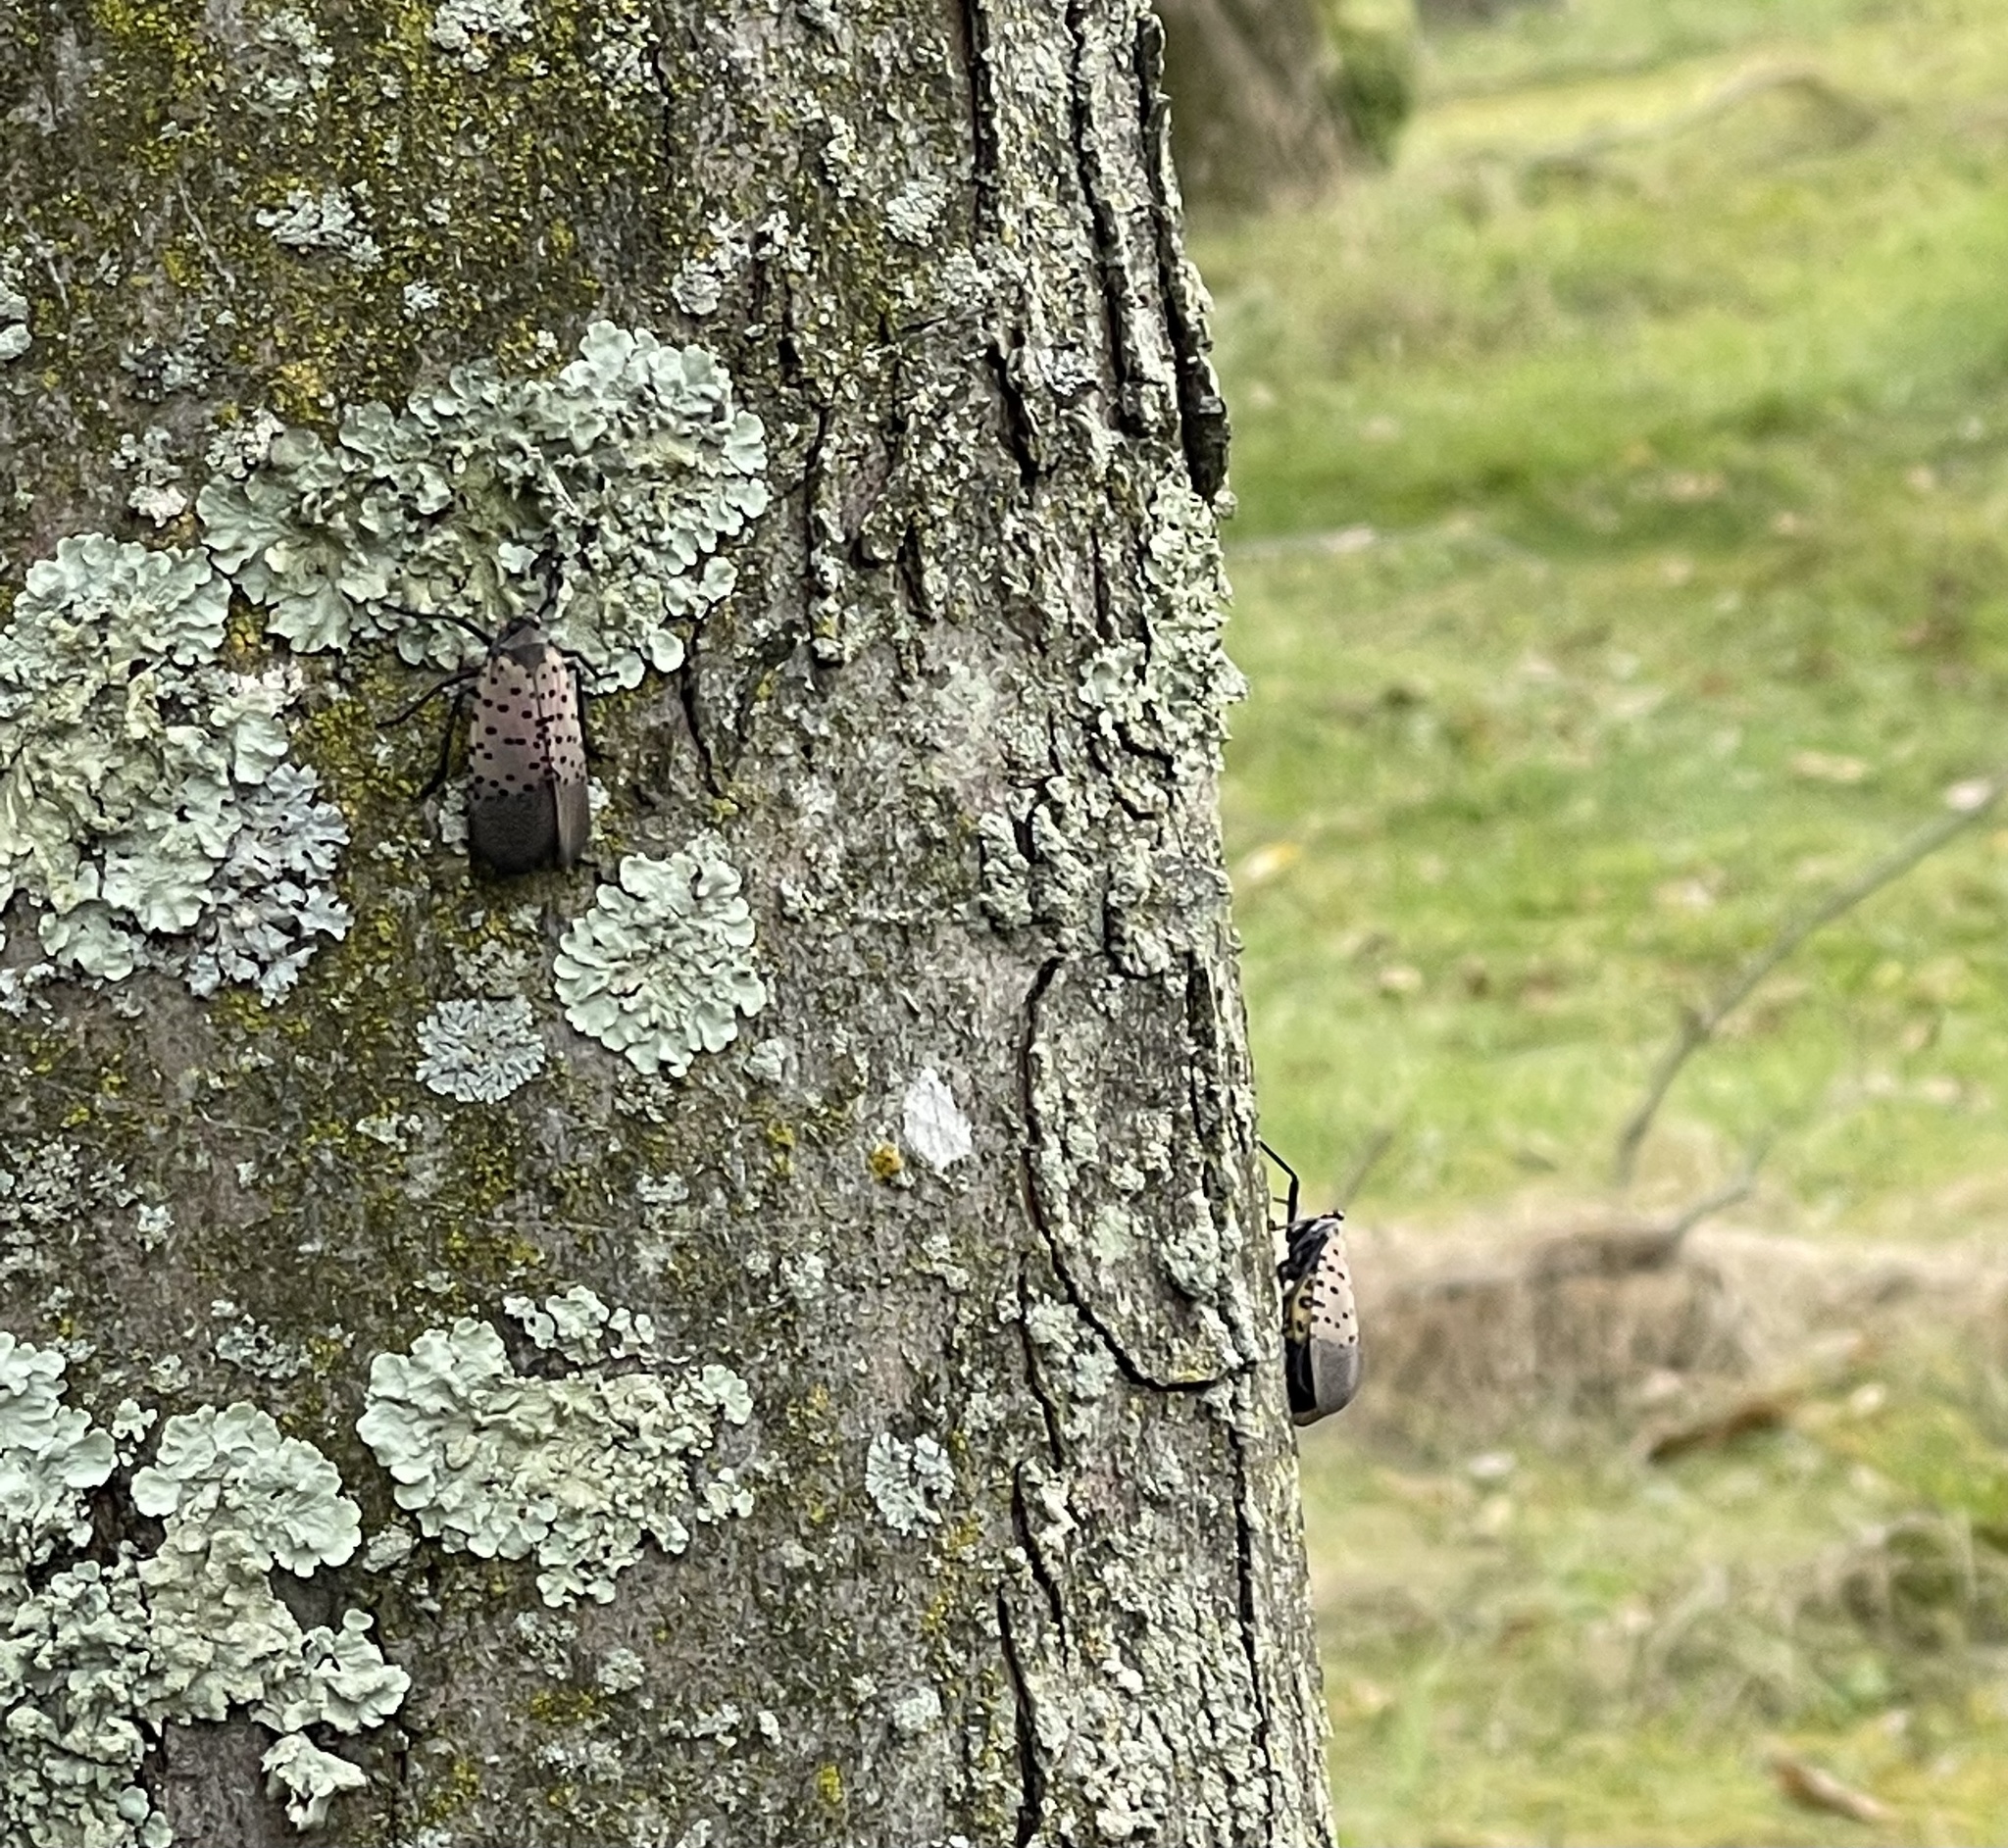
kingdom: Animalia
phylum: Arthropoda
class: Insecta
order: Hemiptera
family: Fulgoridae
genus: Lycorma
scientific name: Lycorma delicatula
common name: Spotted lanternfly
